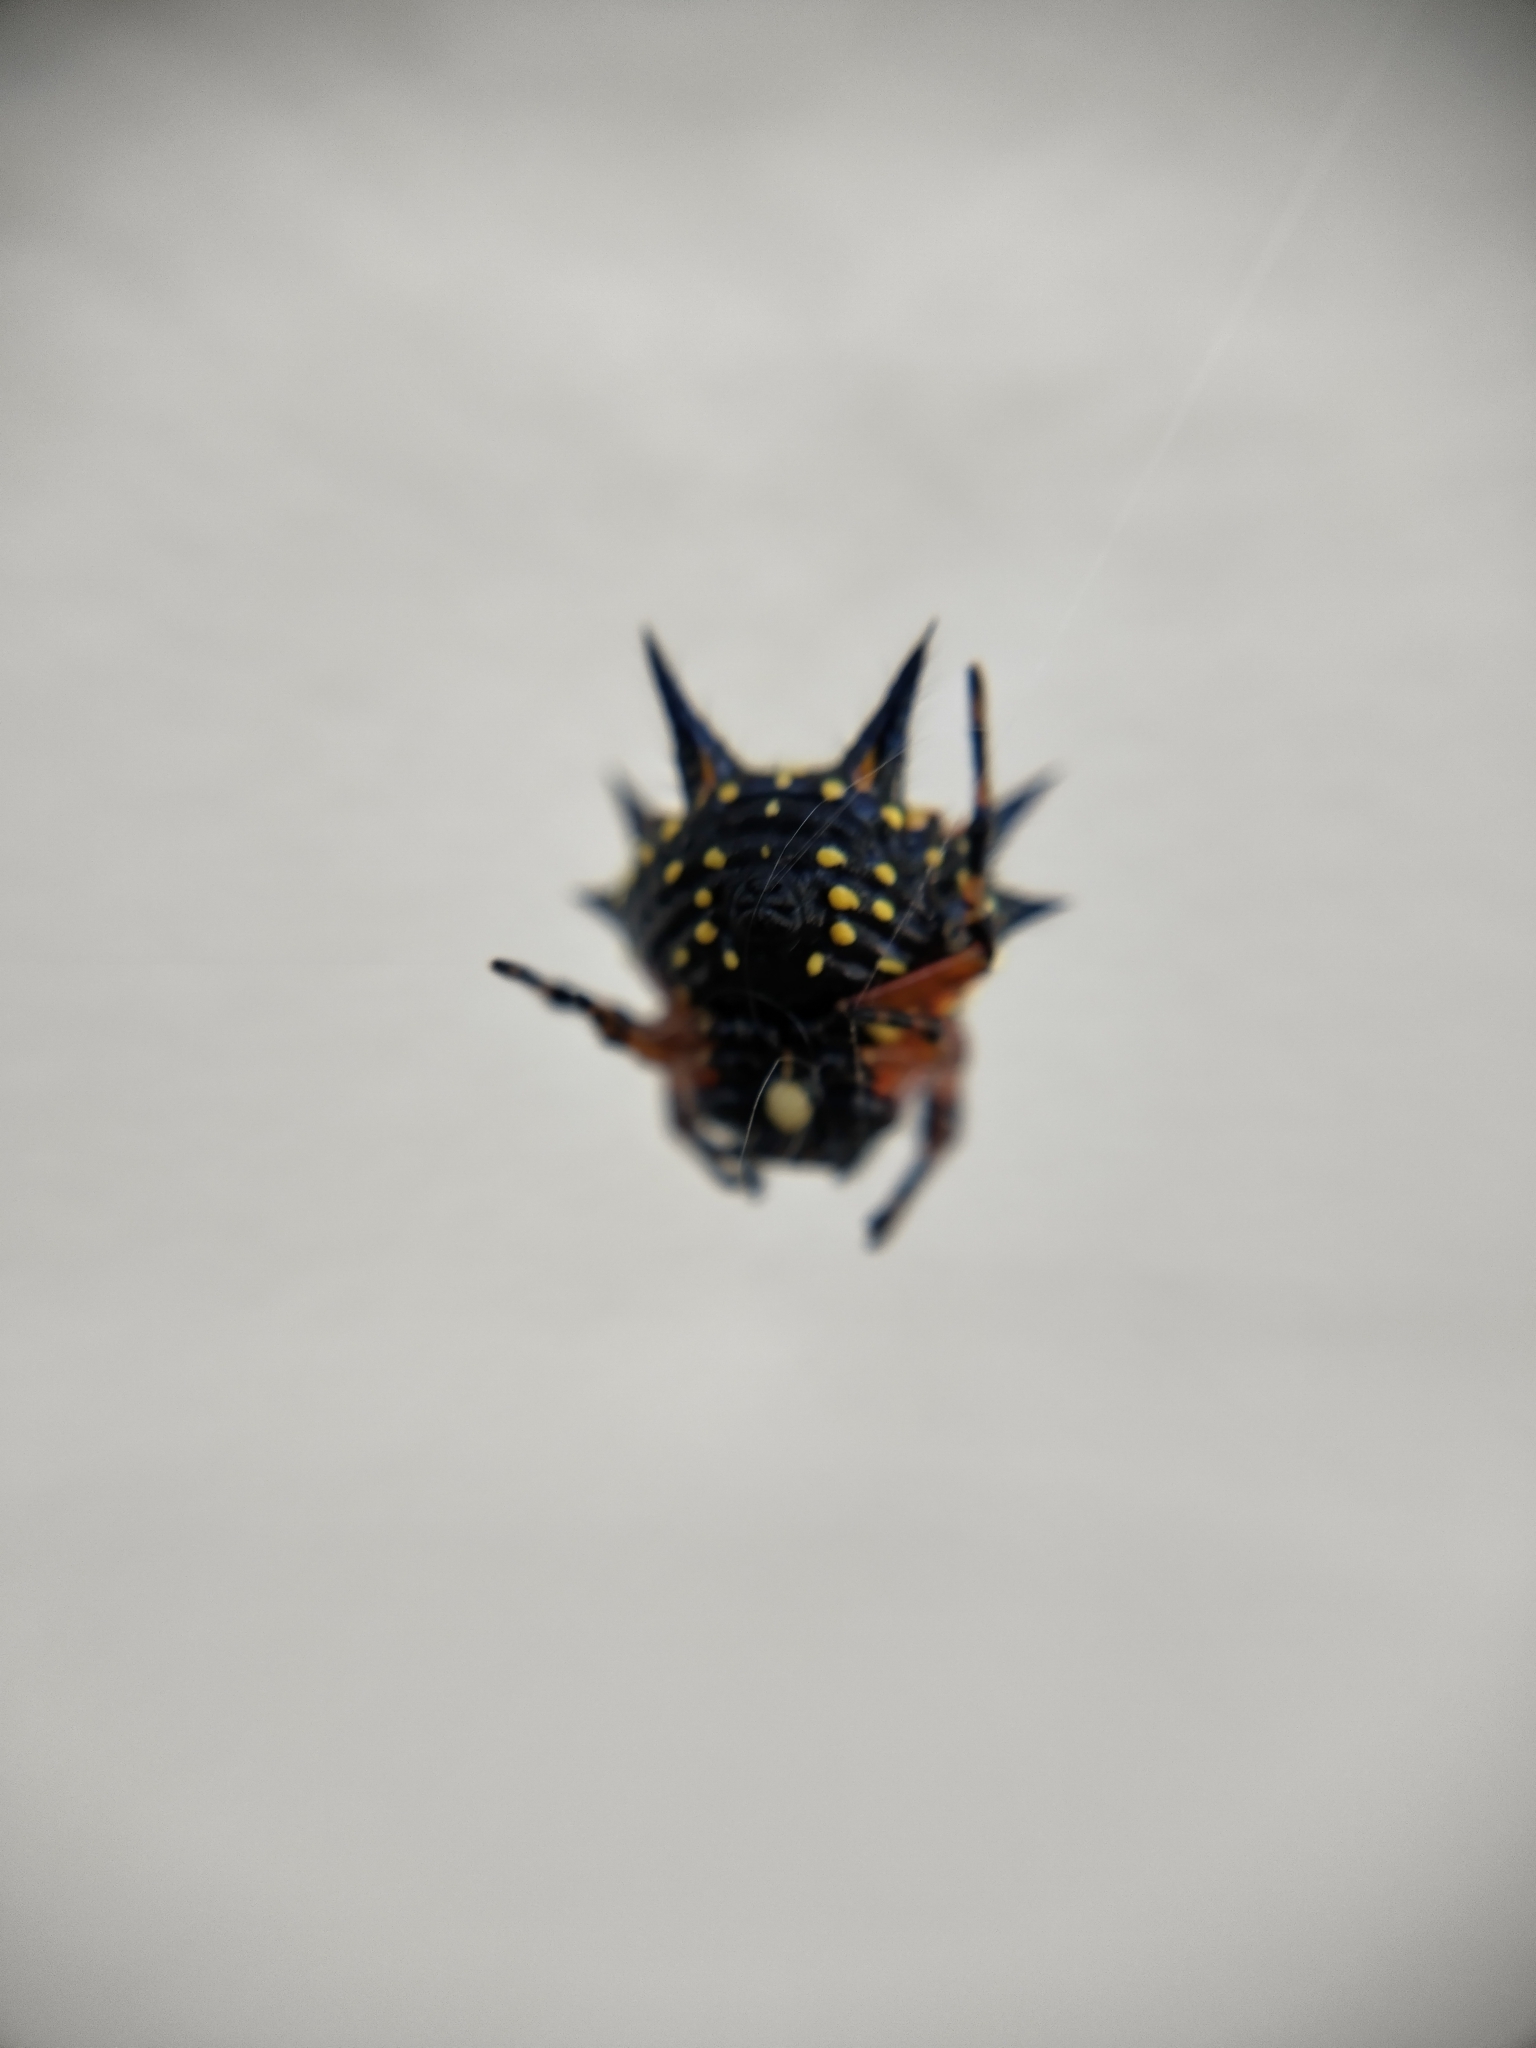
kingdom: Animalia
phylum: Arthropoda
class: Arachnida
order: Araneae
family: Araneidae
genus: Austracantha
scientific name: Austracantha minax
